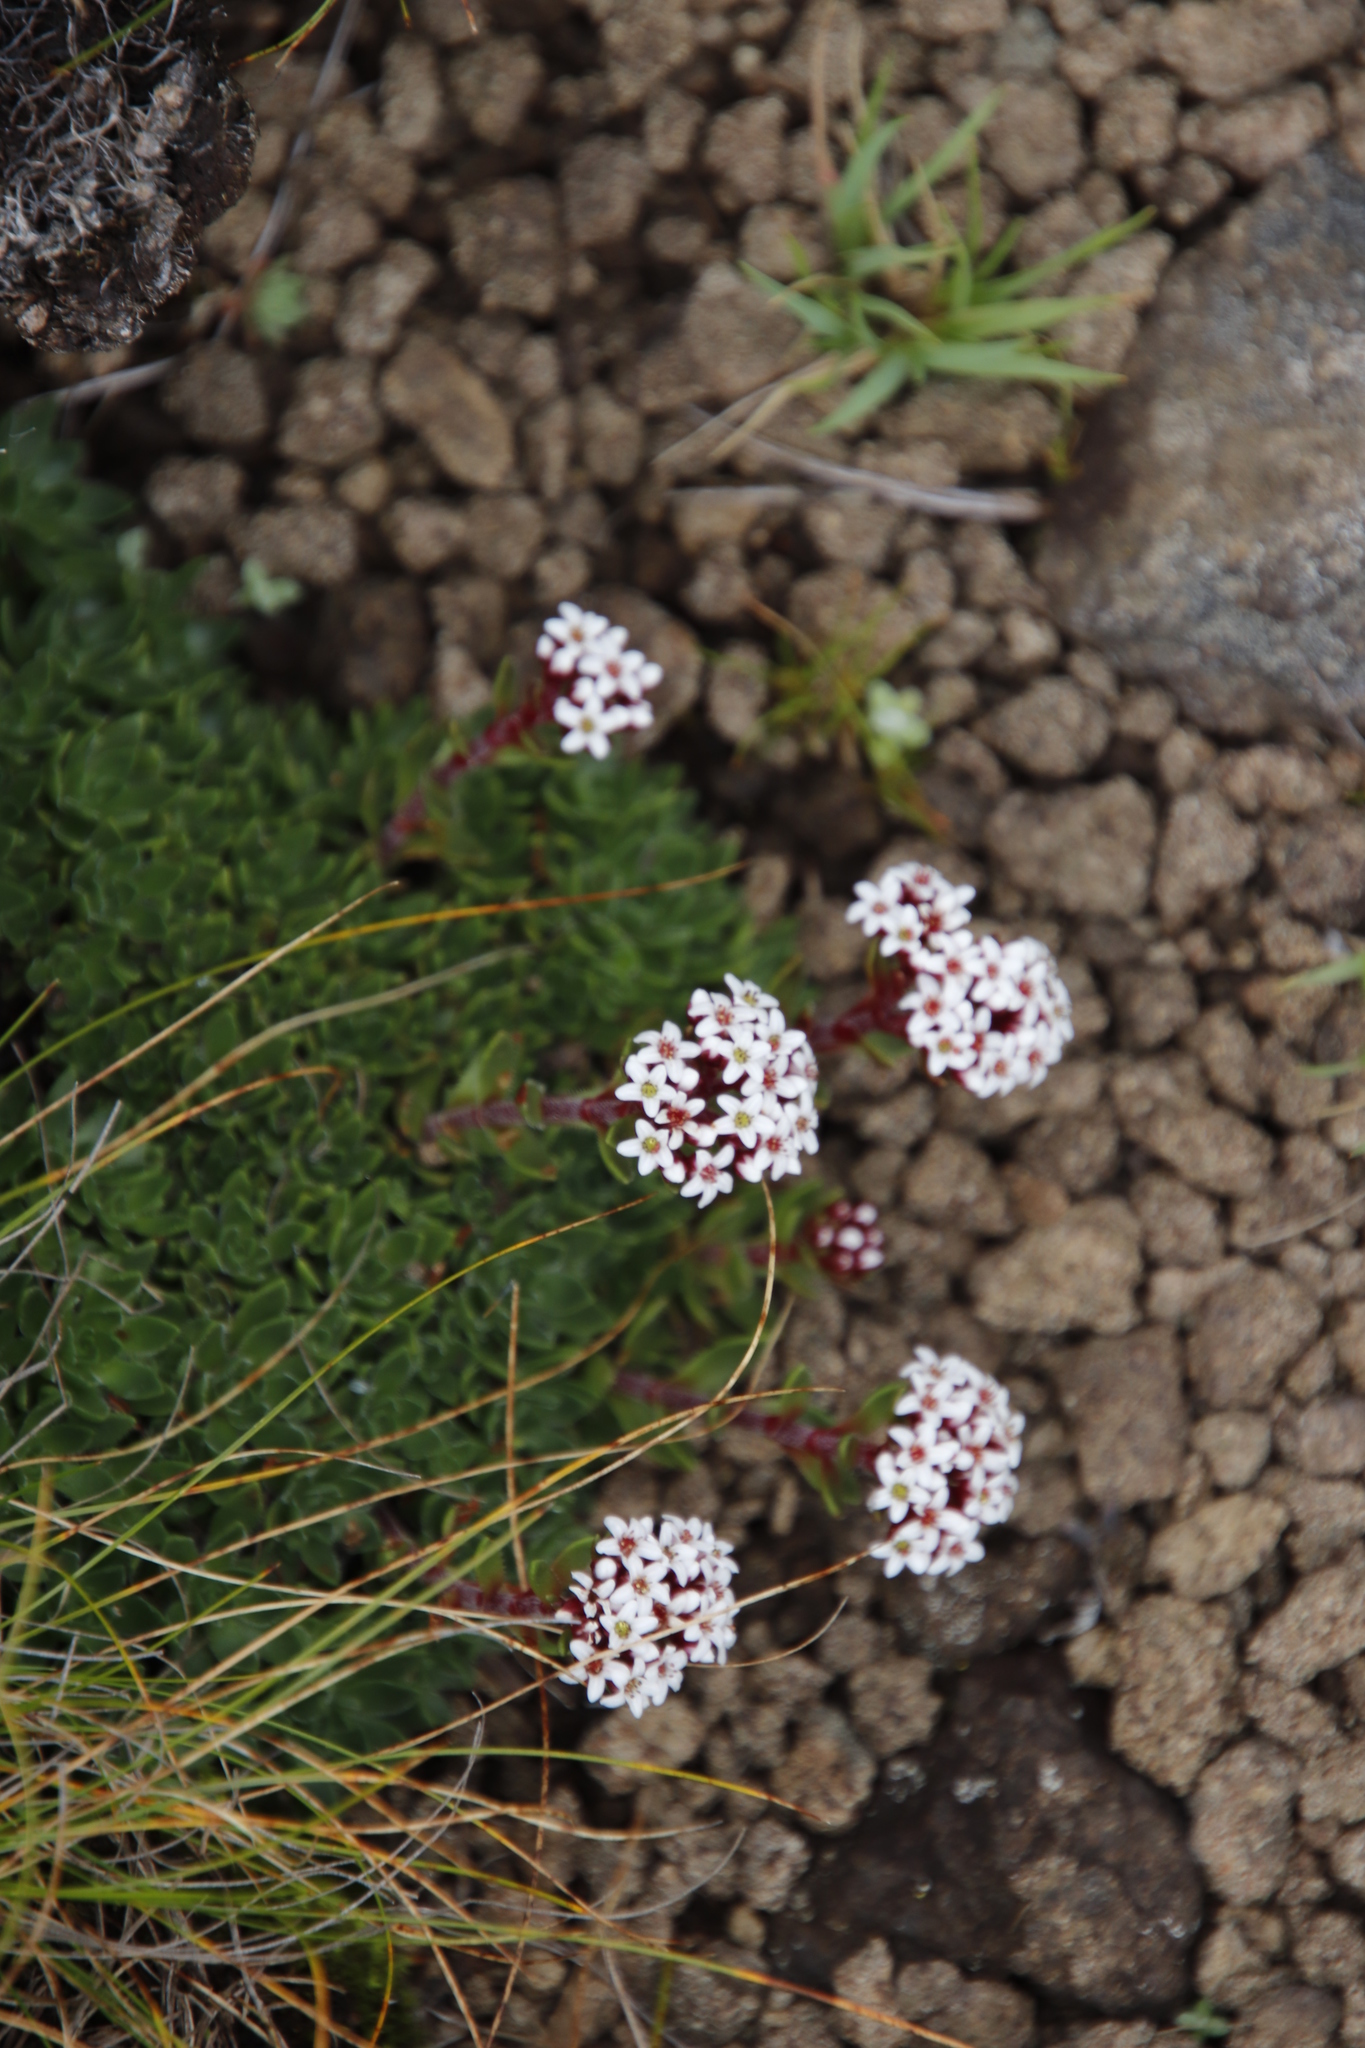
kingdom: Plantae
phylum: Tracheophyta
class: Magnoliopsida
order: Saxifragales
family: Crassulaceae
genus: Crassula
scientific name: Crassula setulosa
